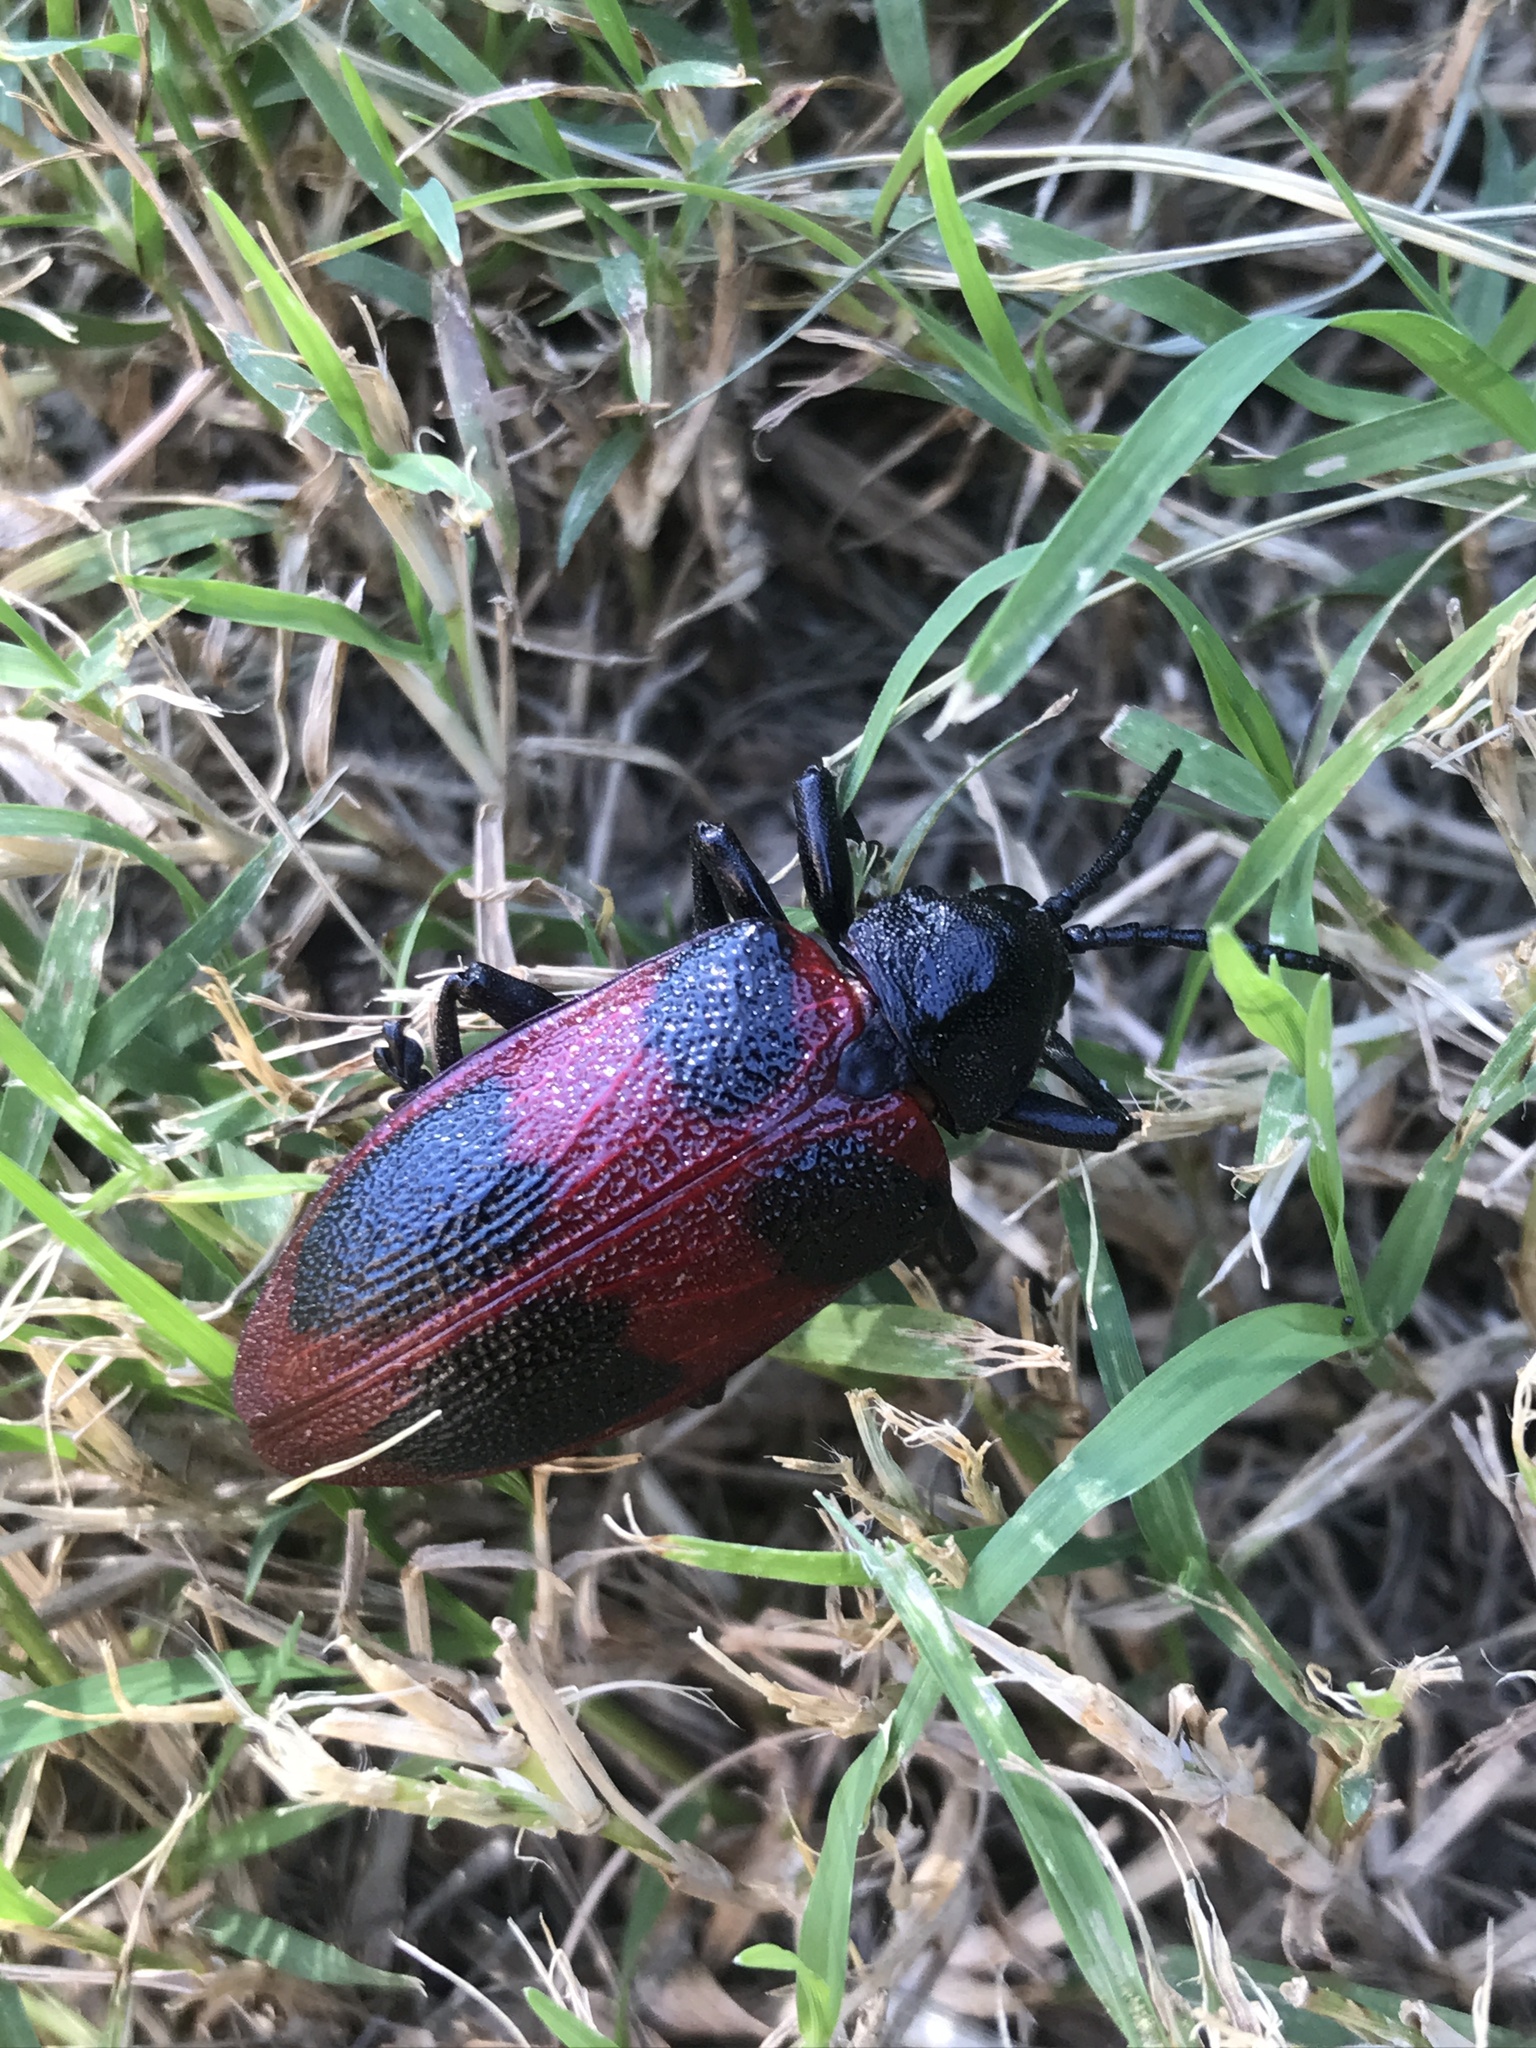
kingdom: Animalia
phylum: Arthropoda
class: Insecta
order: Coleoptera
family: Chrysomelidae
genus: Coraliomela
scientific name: Coraliomela quadrimaculata
